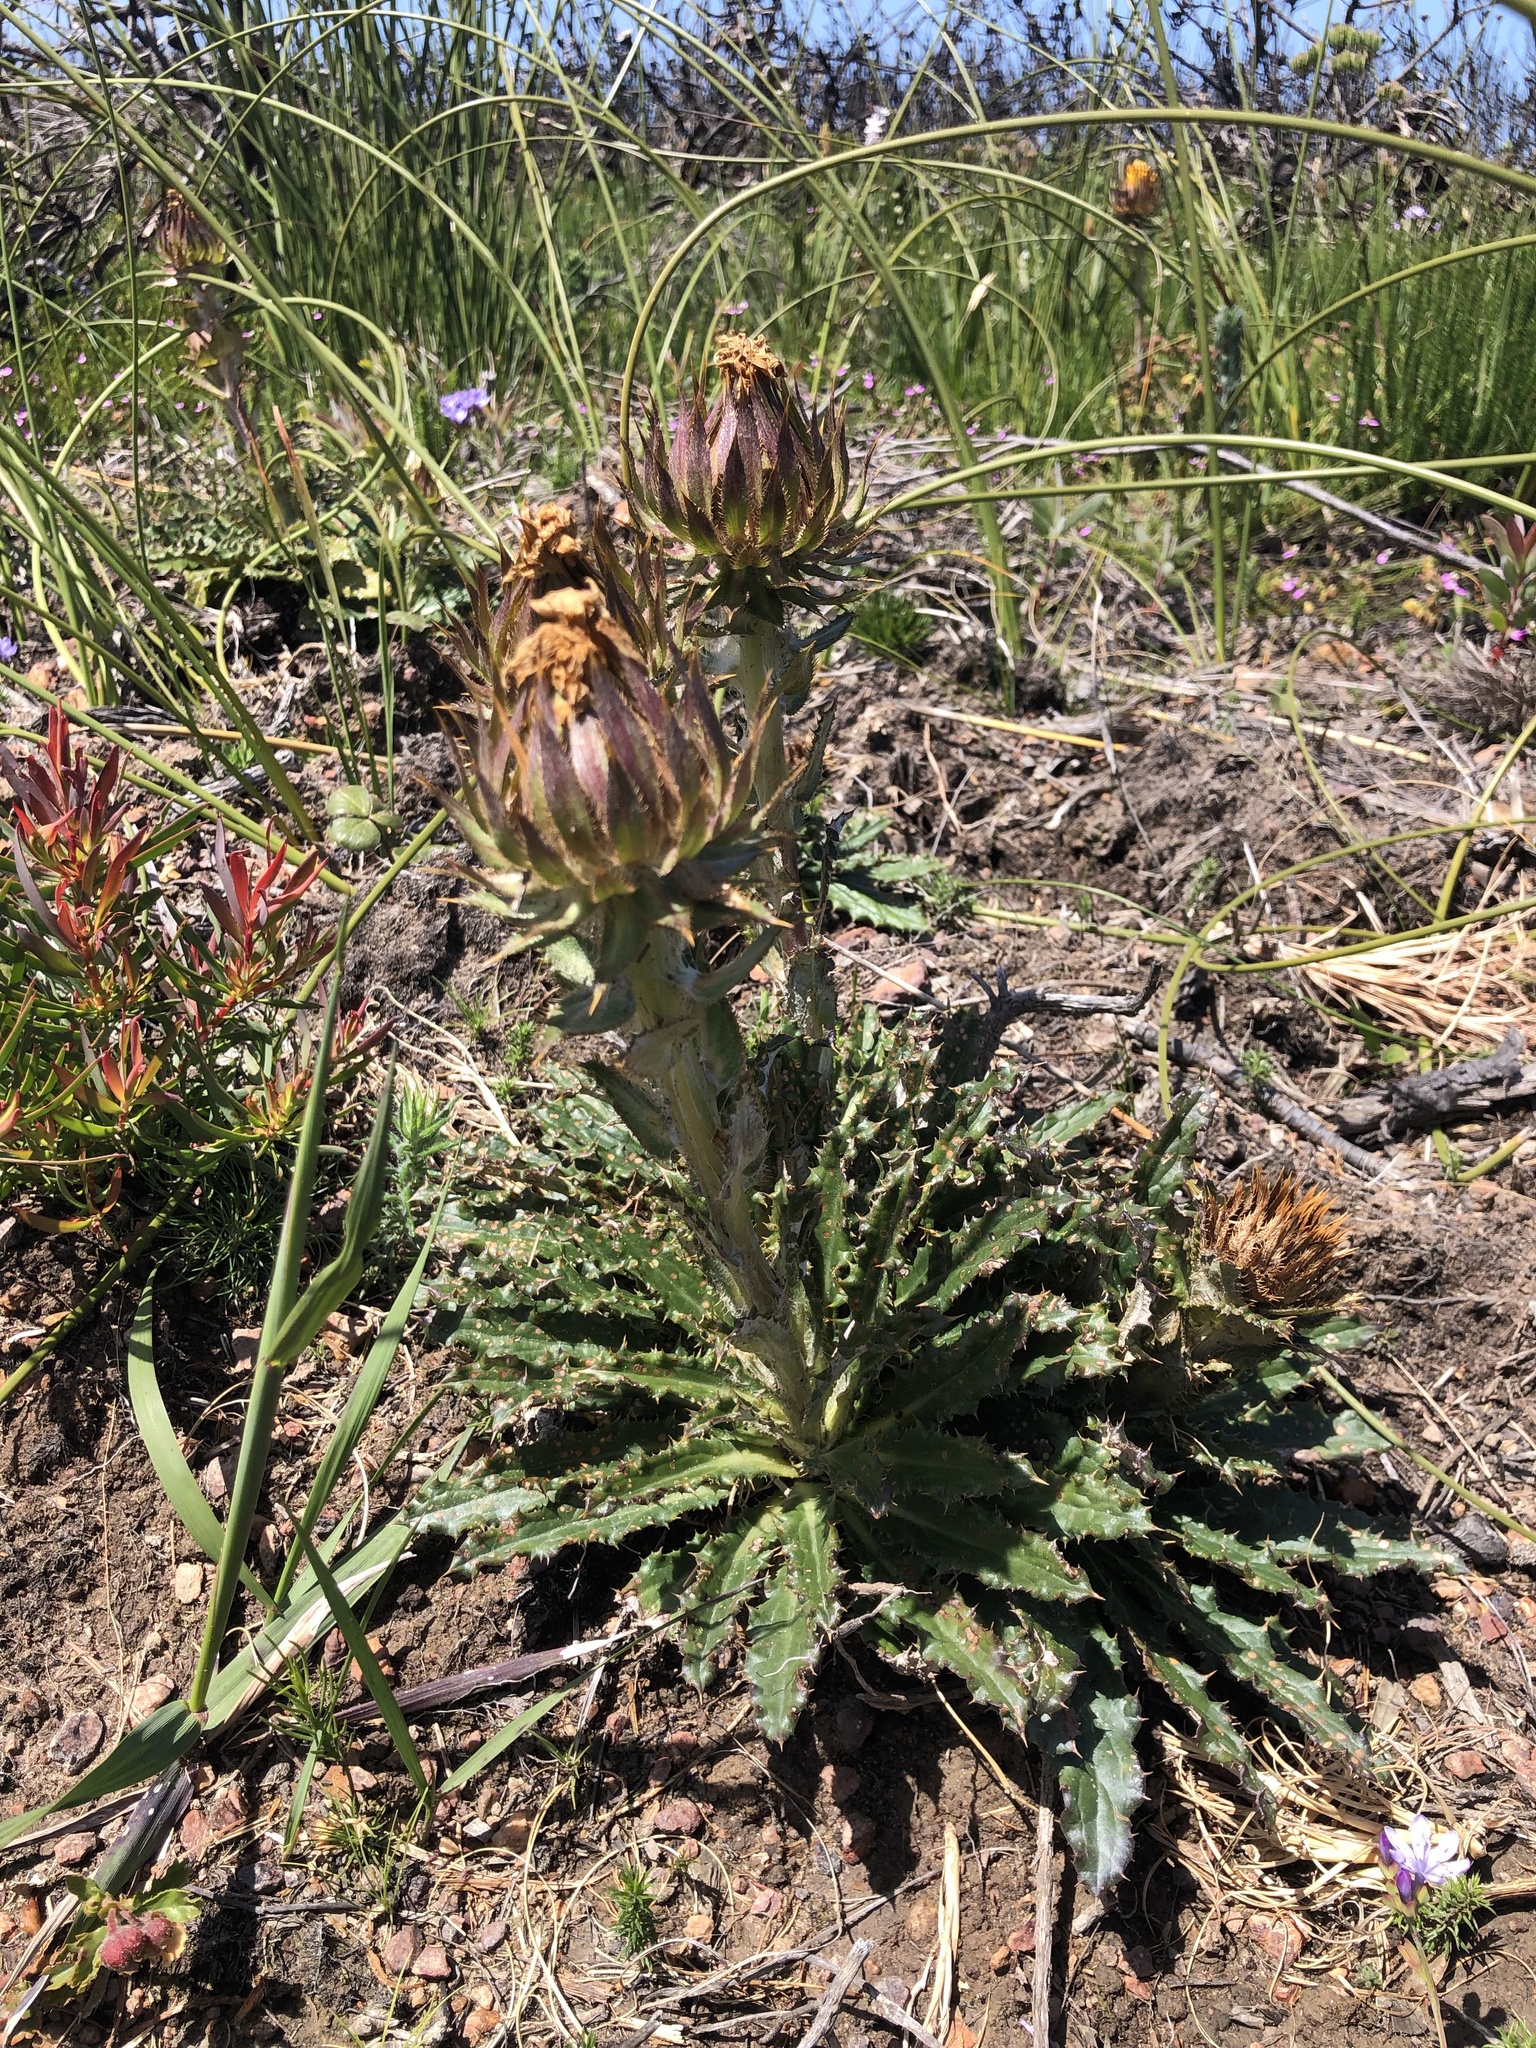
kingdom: Plantae
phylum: Tracheophyta
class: Magnoliopsida
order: Asterales
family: Asteraceae
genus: Berkheya
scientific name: Berkheya armata
